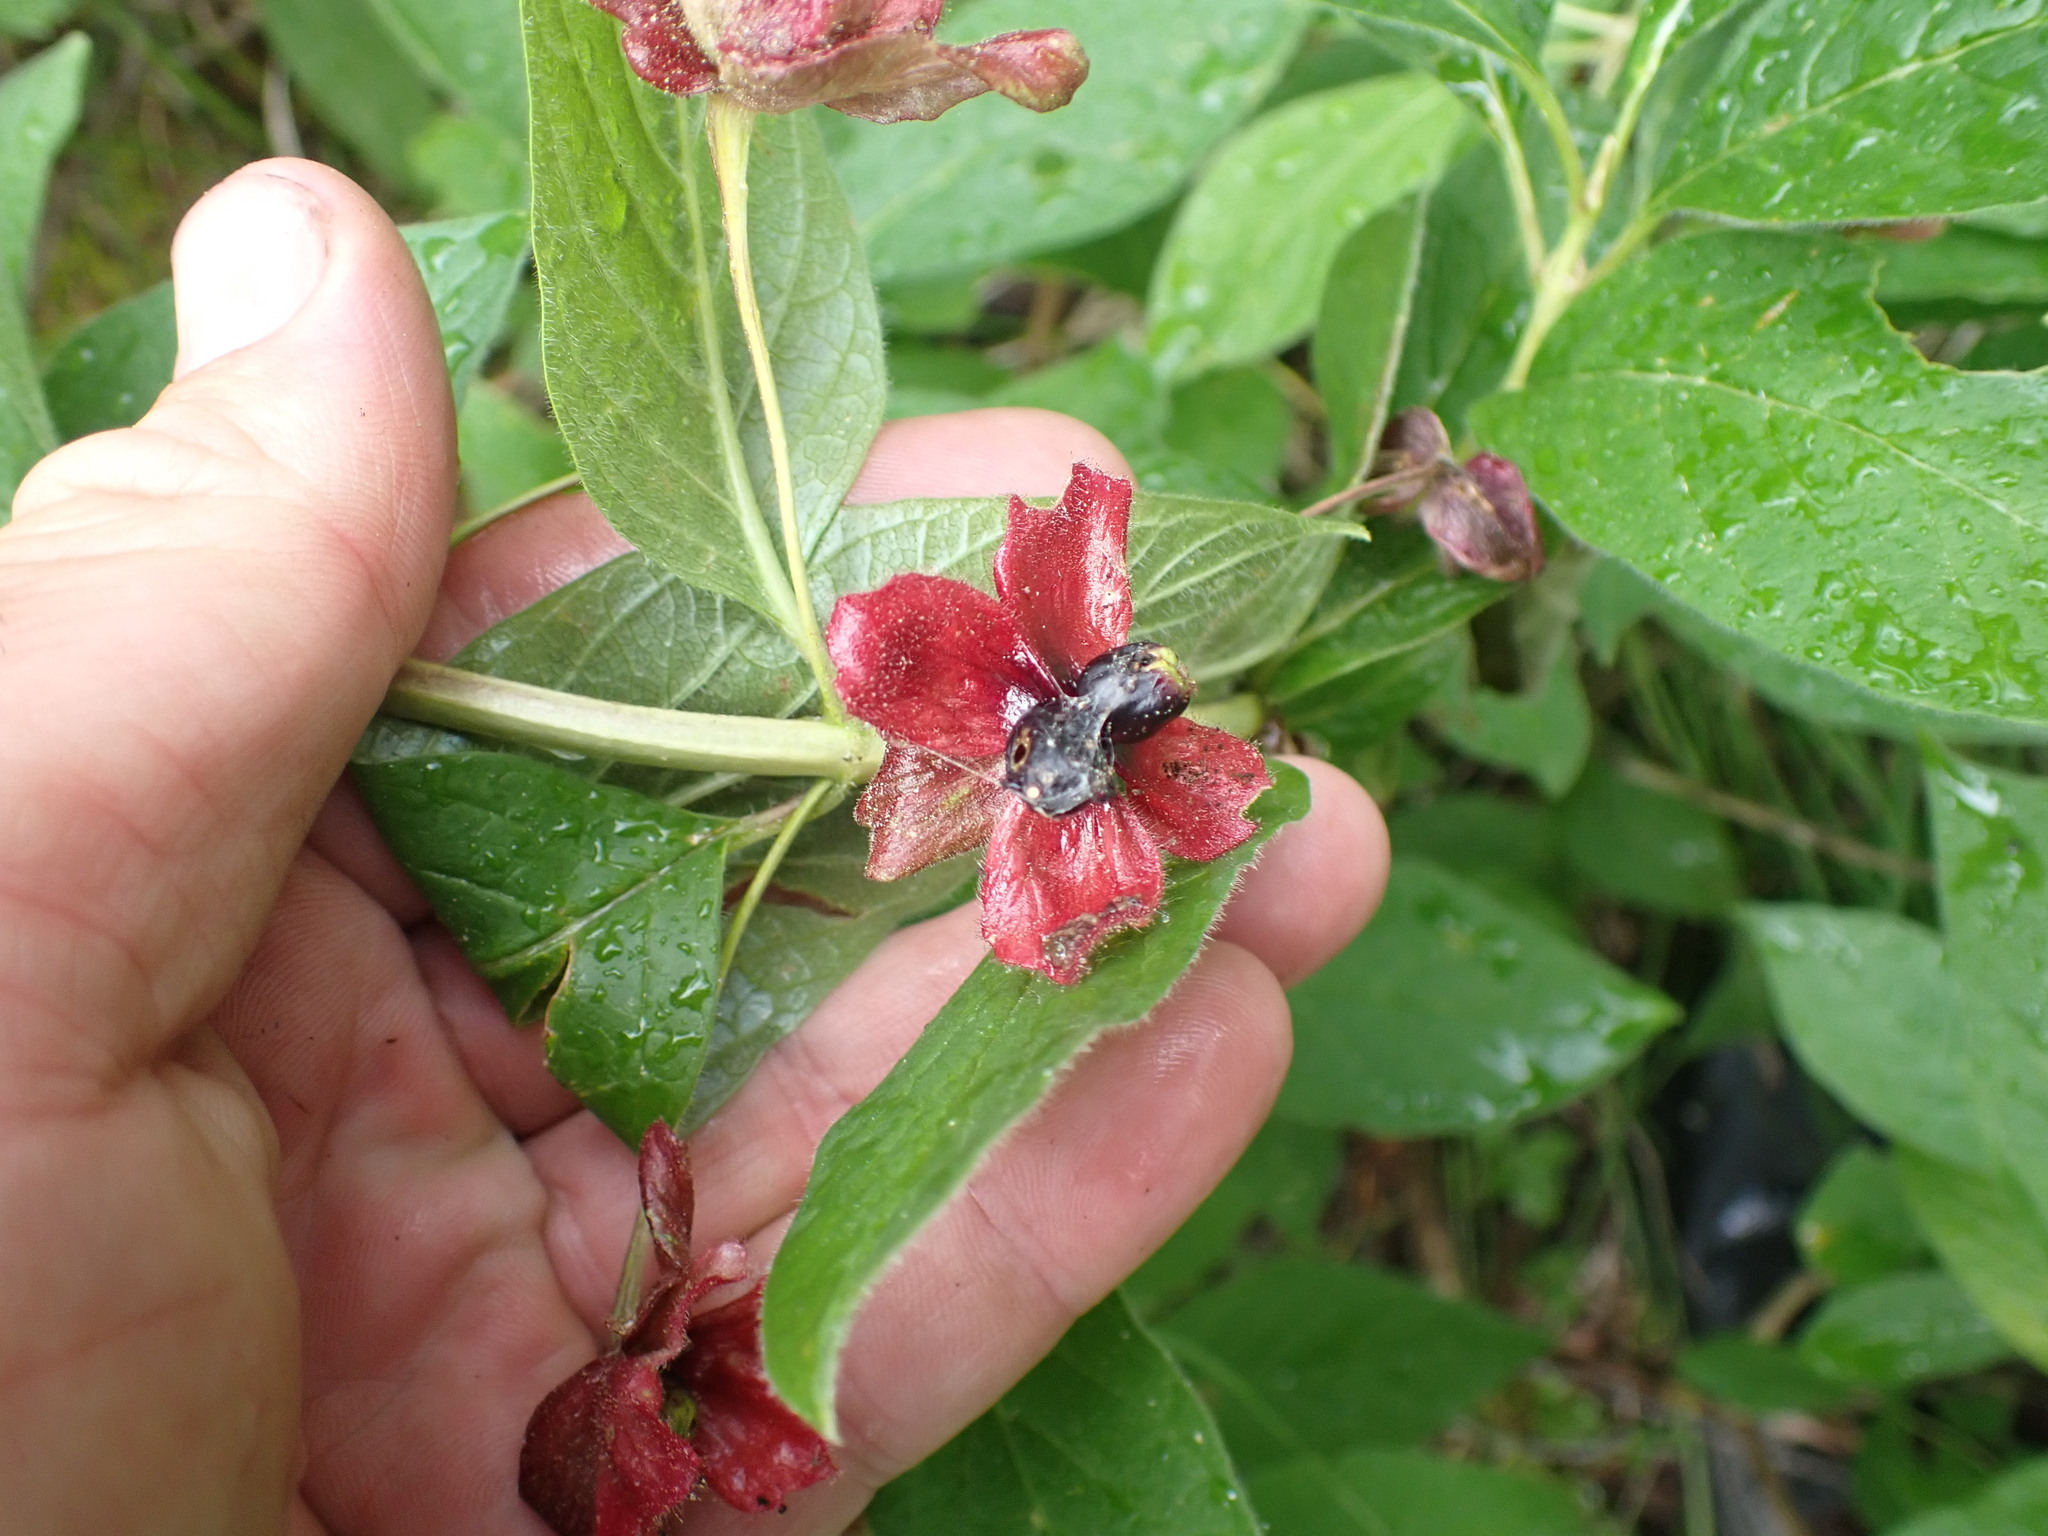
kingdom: Plantae
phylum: Tracheophyta
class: Magnoliopsida
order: Dipsacales
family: Caprifoliaceae
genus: Lonicera
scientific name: Lonicera involucrata
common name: Californian honeysuckle
